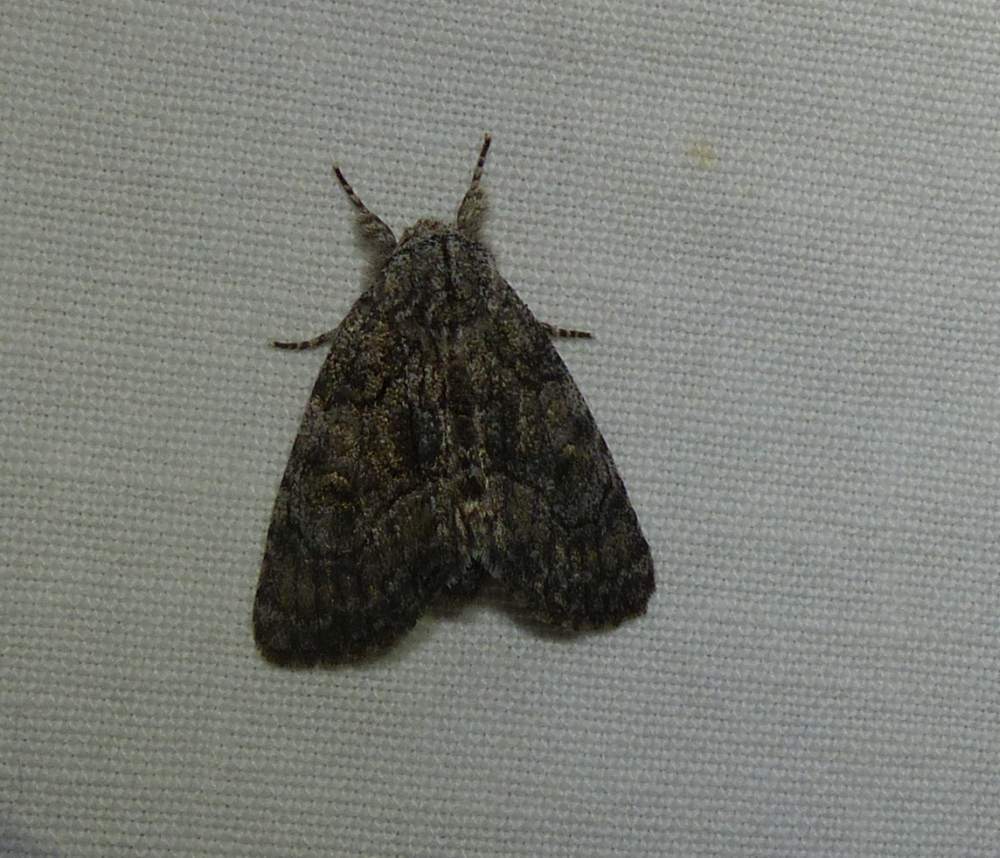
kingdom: Animalia
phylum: Arthropoda
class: Insecta
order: Lepidoptera
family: Noctuidae
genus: Raphia
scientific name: Raphia frater
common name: Brother
